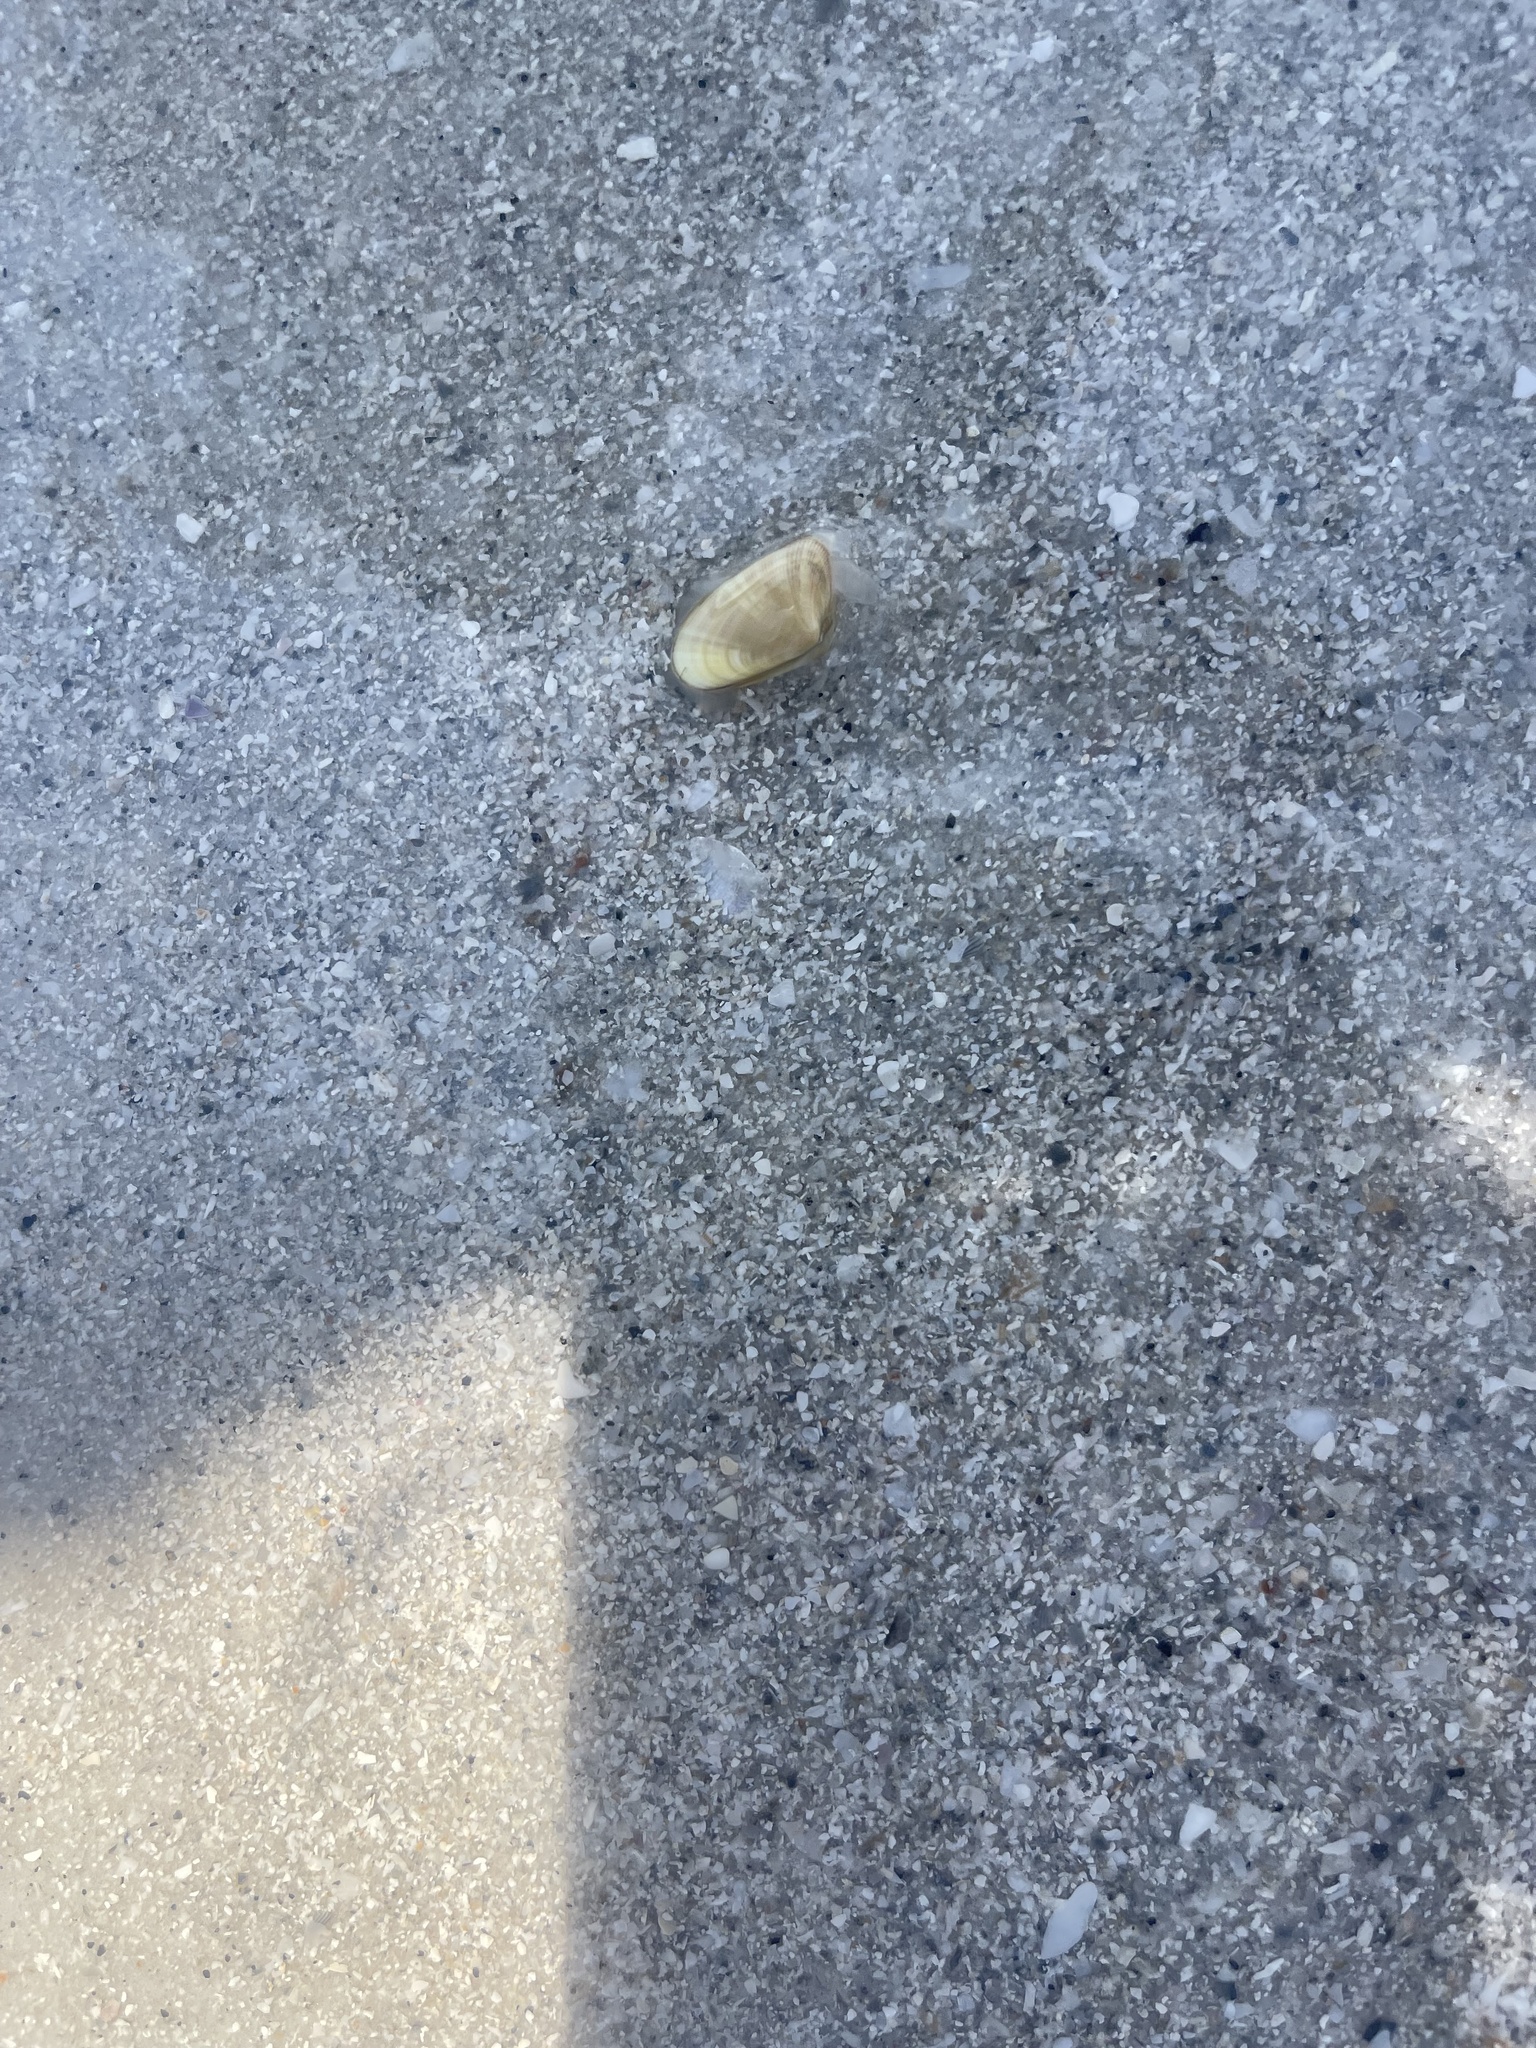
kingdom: Animalia
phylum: Mollusca
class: Bivalvia
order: Cardiida
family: Donacidae
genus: Donax
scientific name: Donax variabilis
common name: Butterfly shell
